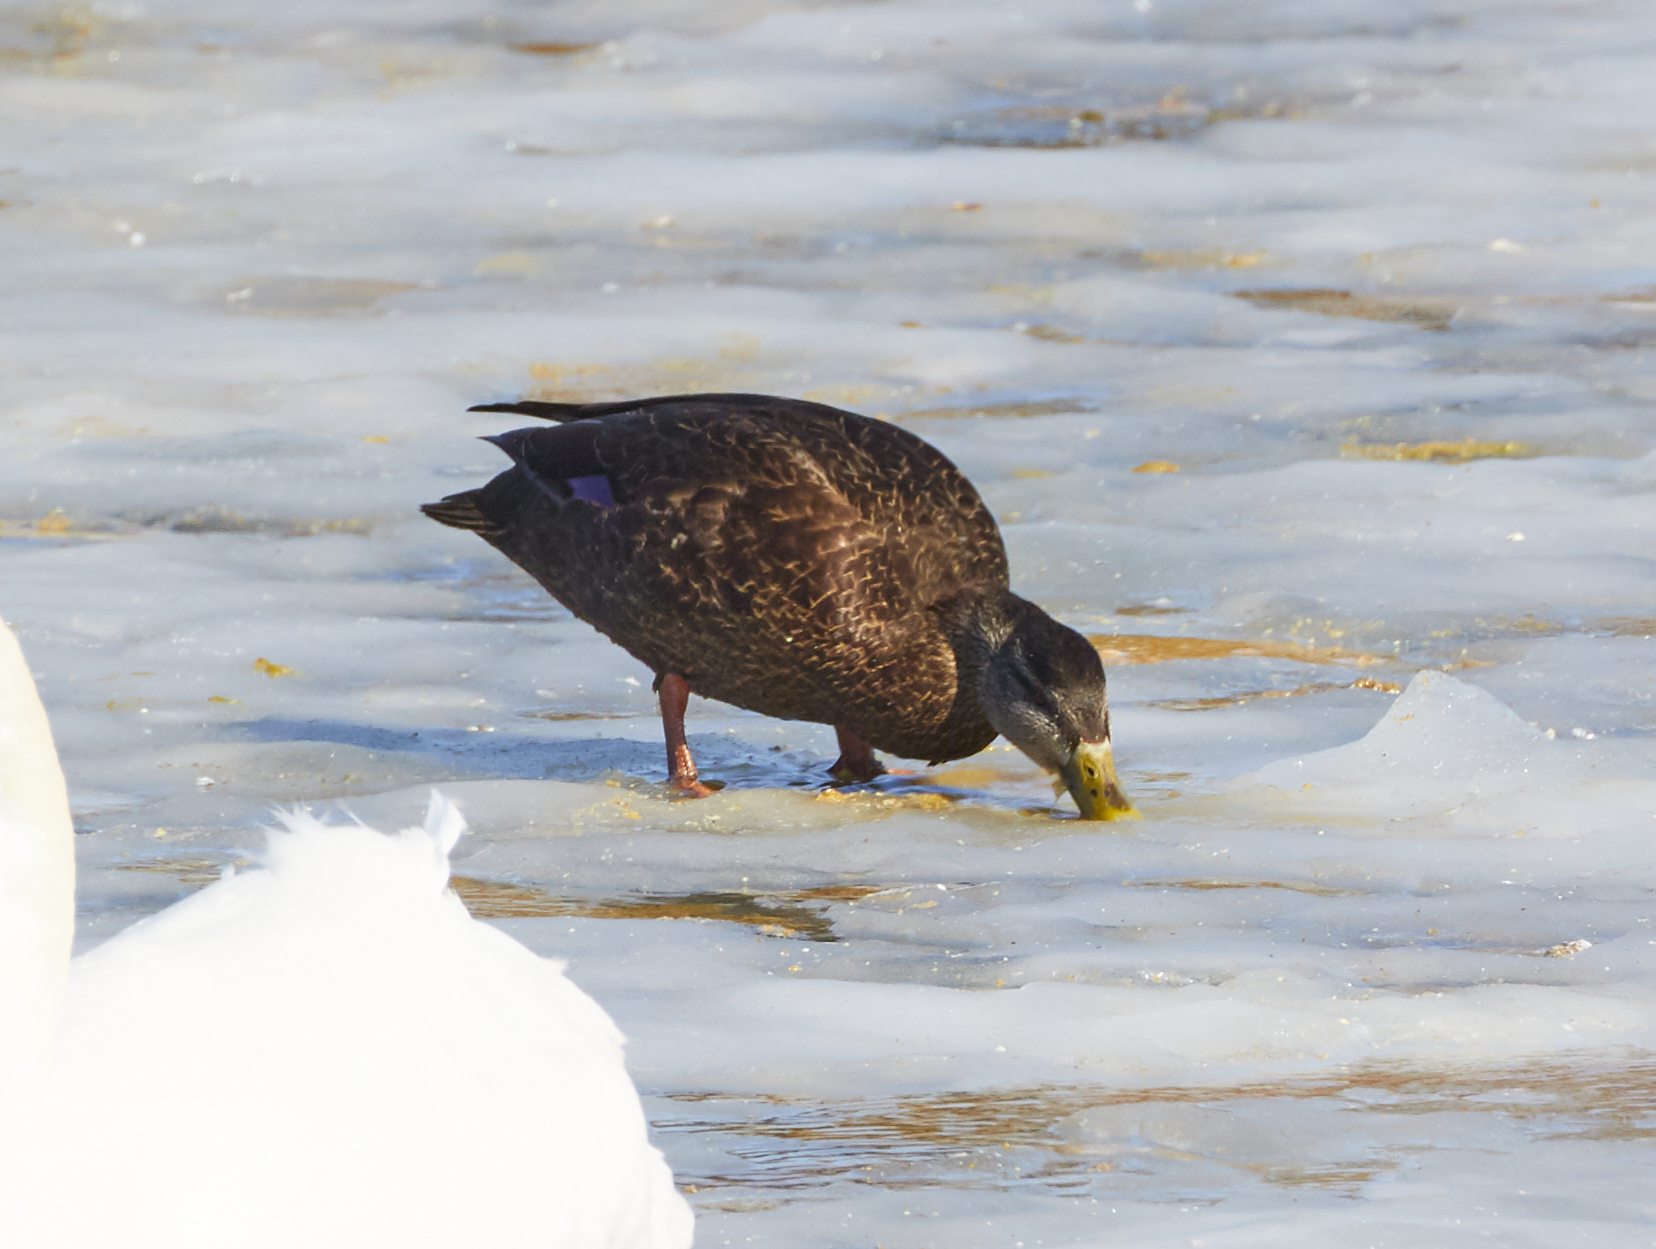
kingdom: Animalia
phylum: Chordata
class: Aves
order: Anseriformes
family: Anatidae
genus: Anas
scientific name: Anas rubripes
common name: American black duck
